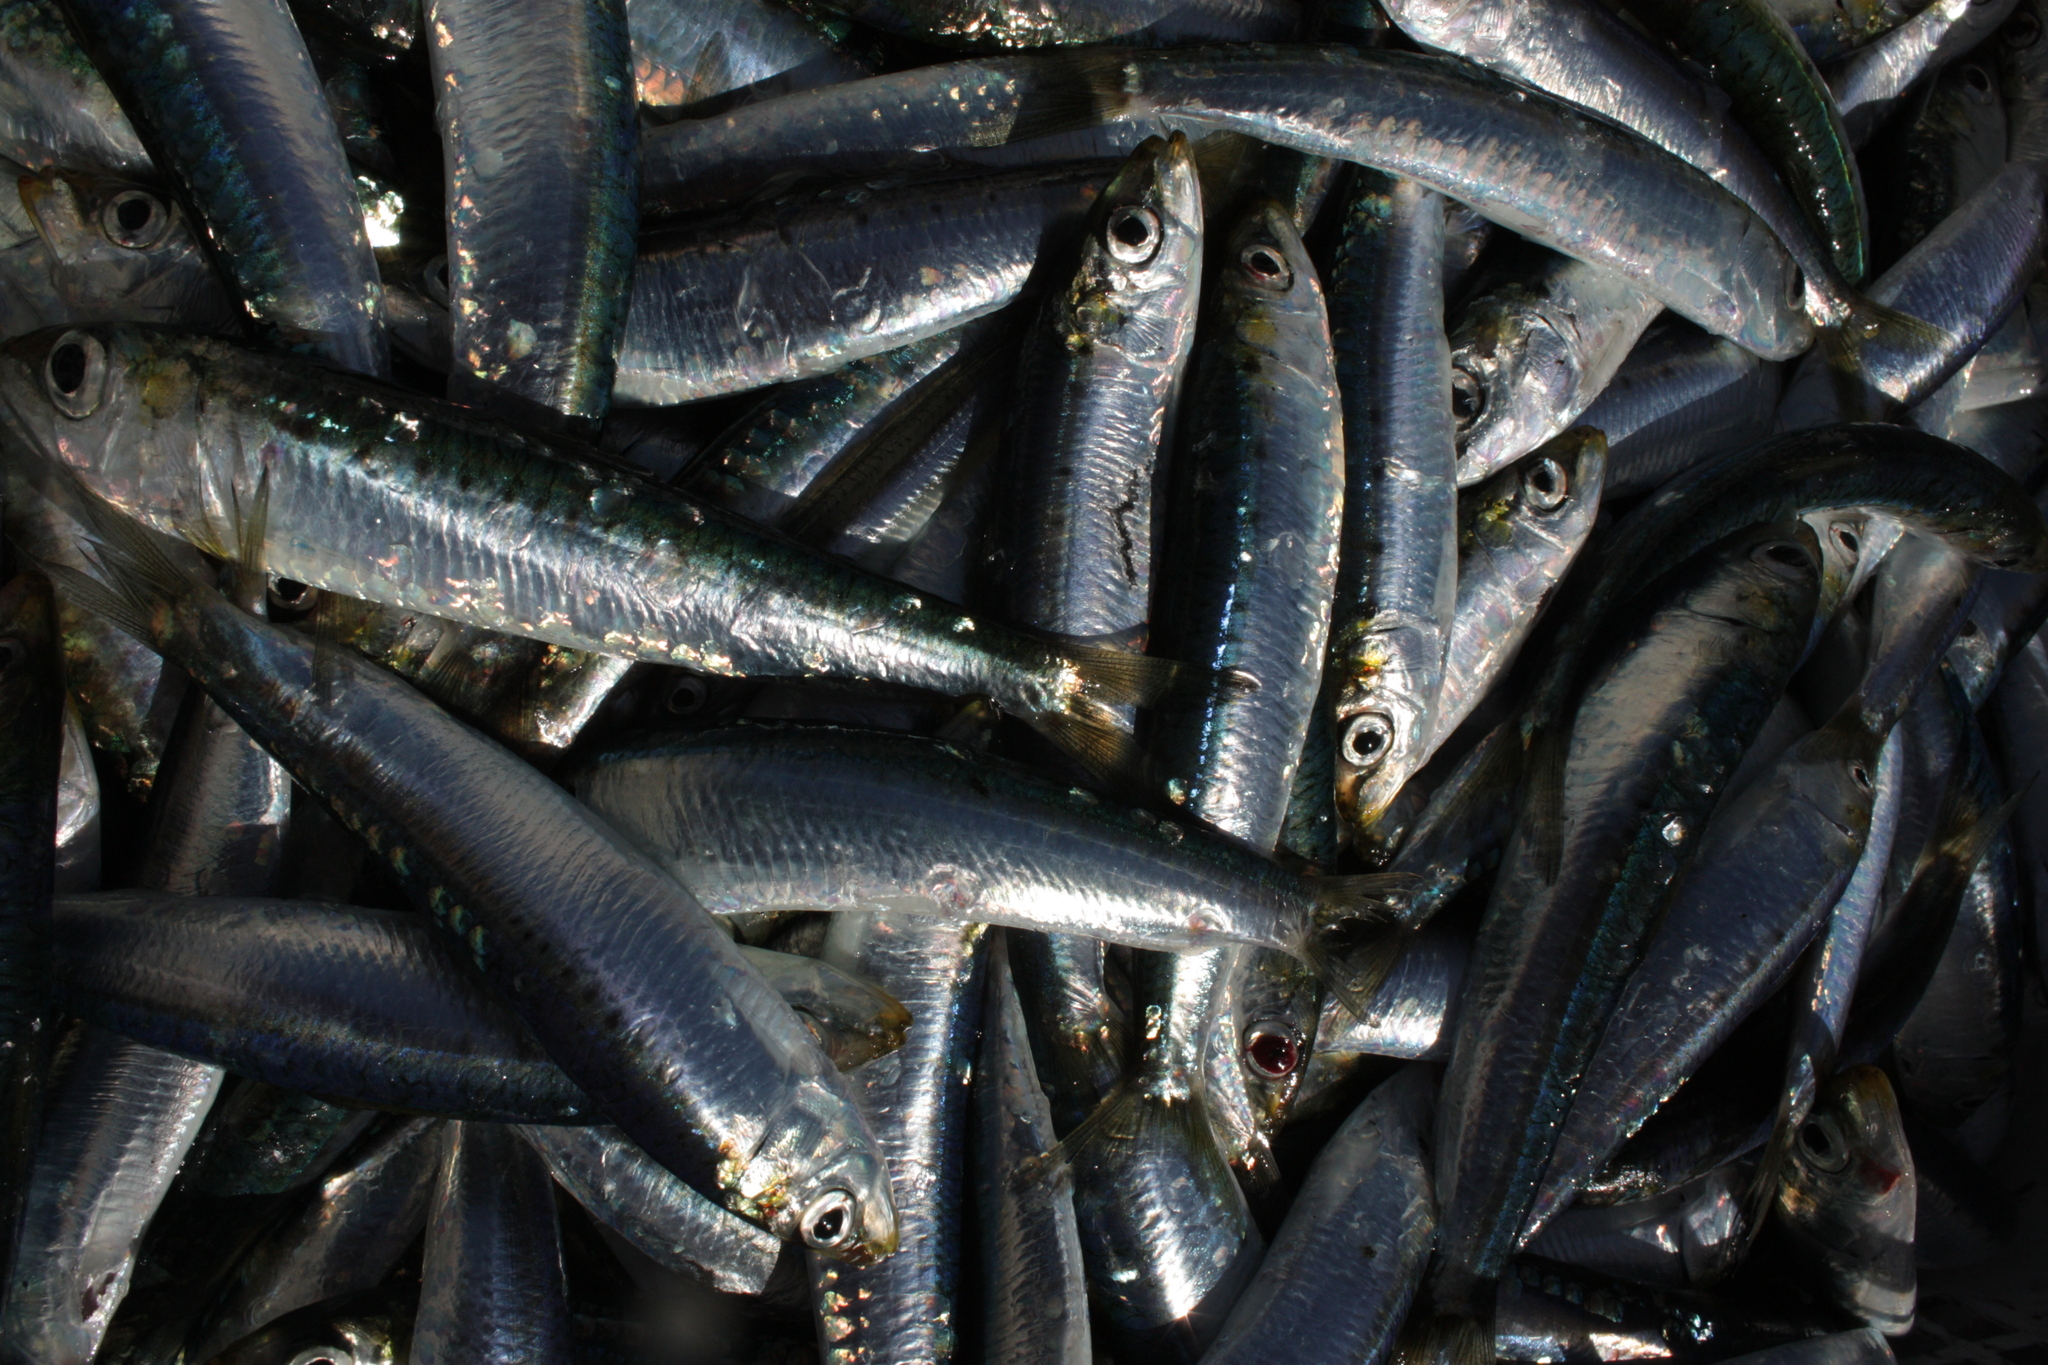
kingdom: Animalia
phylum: Chordata
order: Clupeiformes
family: Clupeidae
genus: Sardina
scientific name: Sardina pilchardus
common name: Pilchard
